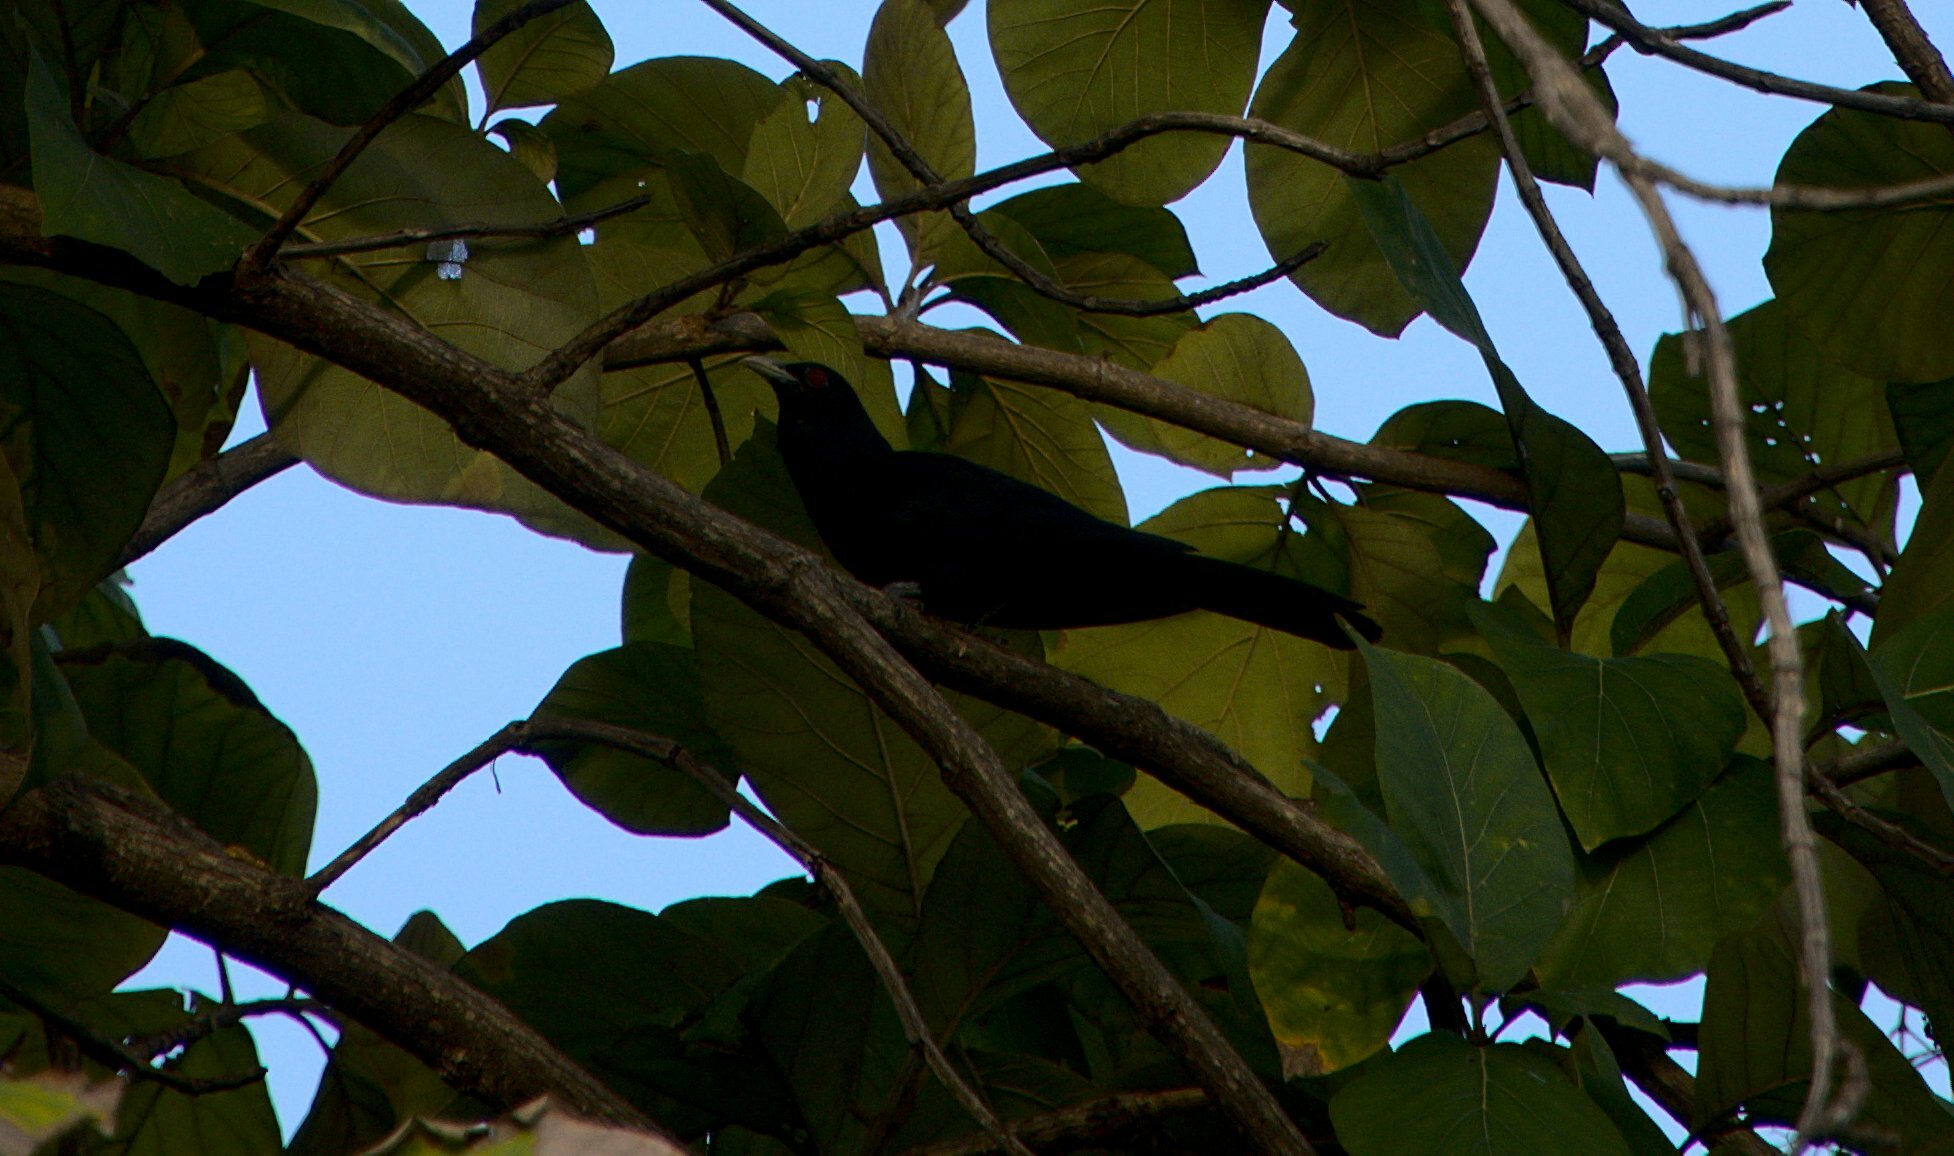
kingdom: Animalia
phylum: Chordata
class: Aves
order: Cuculiformes
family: Cuculidae
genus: Eudynamys
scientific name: Eudynamys scolopaceus
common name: Asian koel
